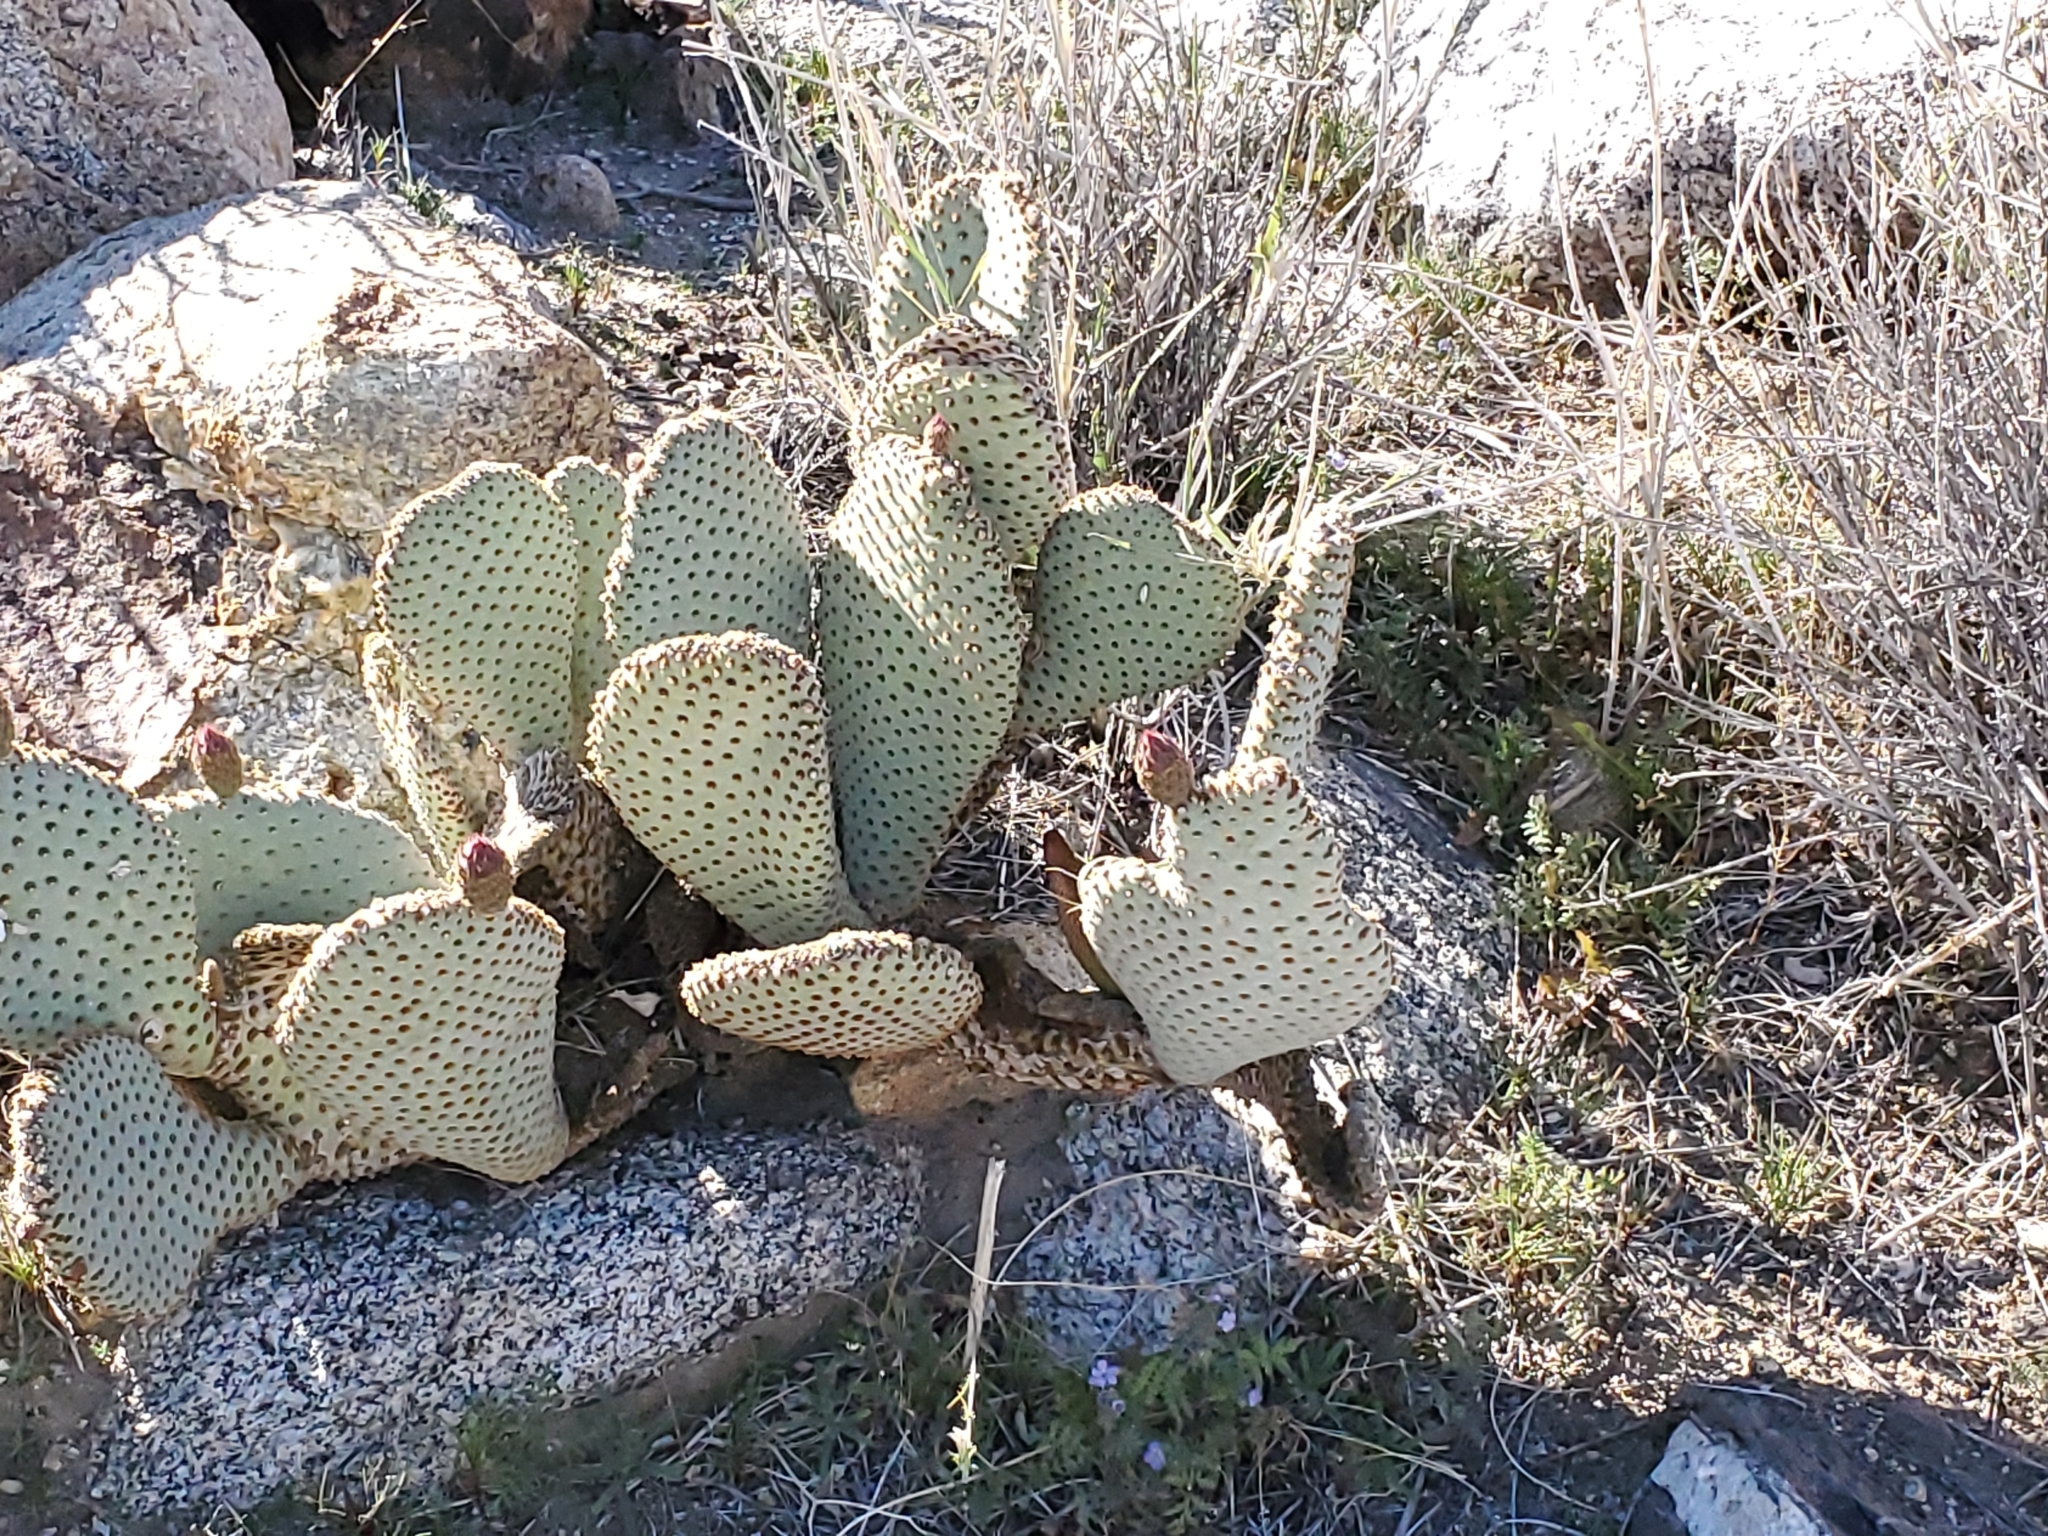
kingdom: Plantae
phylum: Tracheophyta
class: Magnoliopsida
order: Caryophyllales
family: Cactaceae
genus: Opuntia
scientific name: Opuntia basilaris
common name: Beavertail prickly-pear
